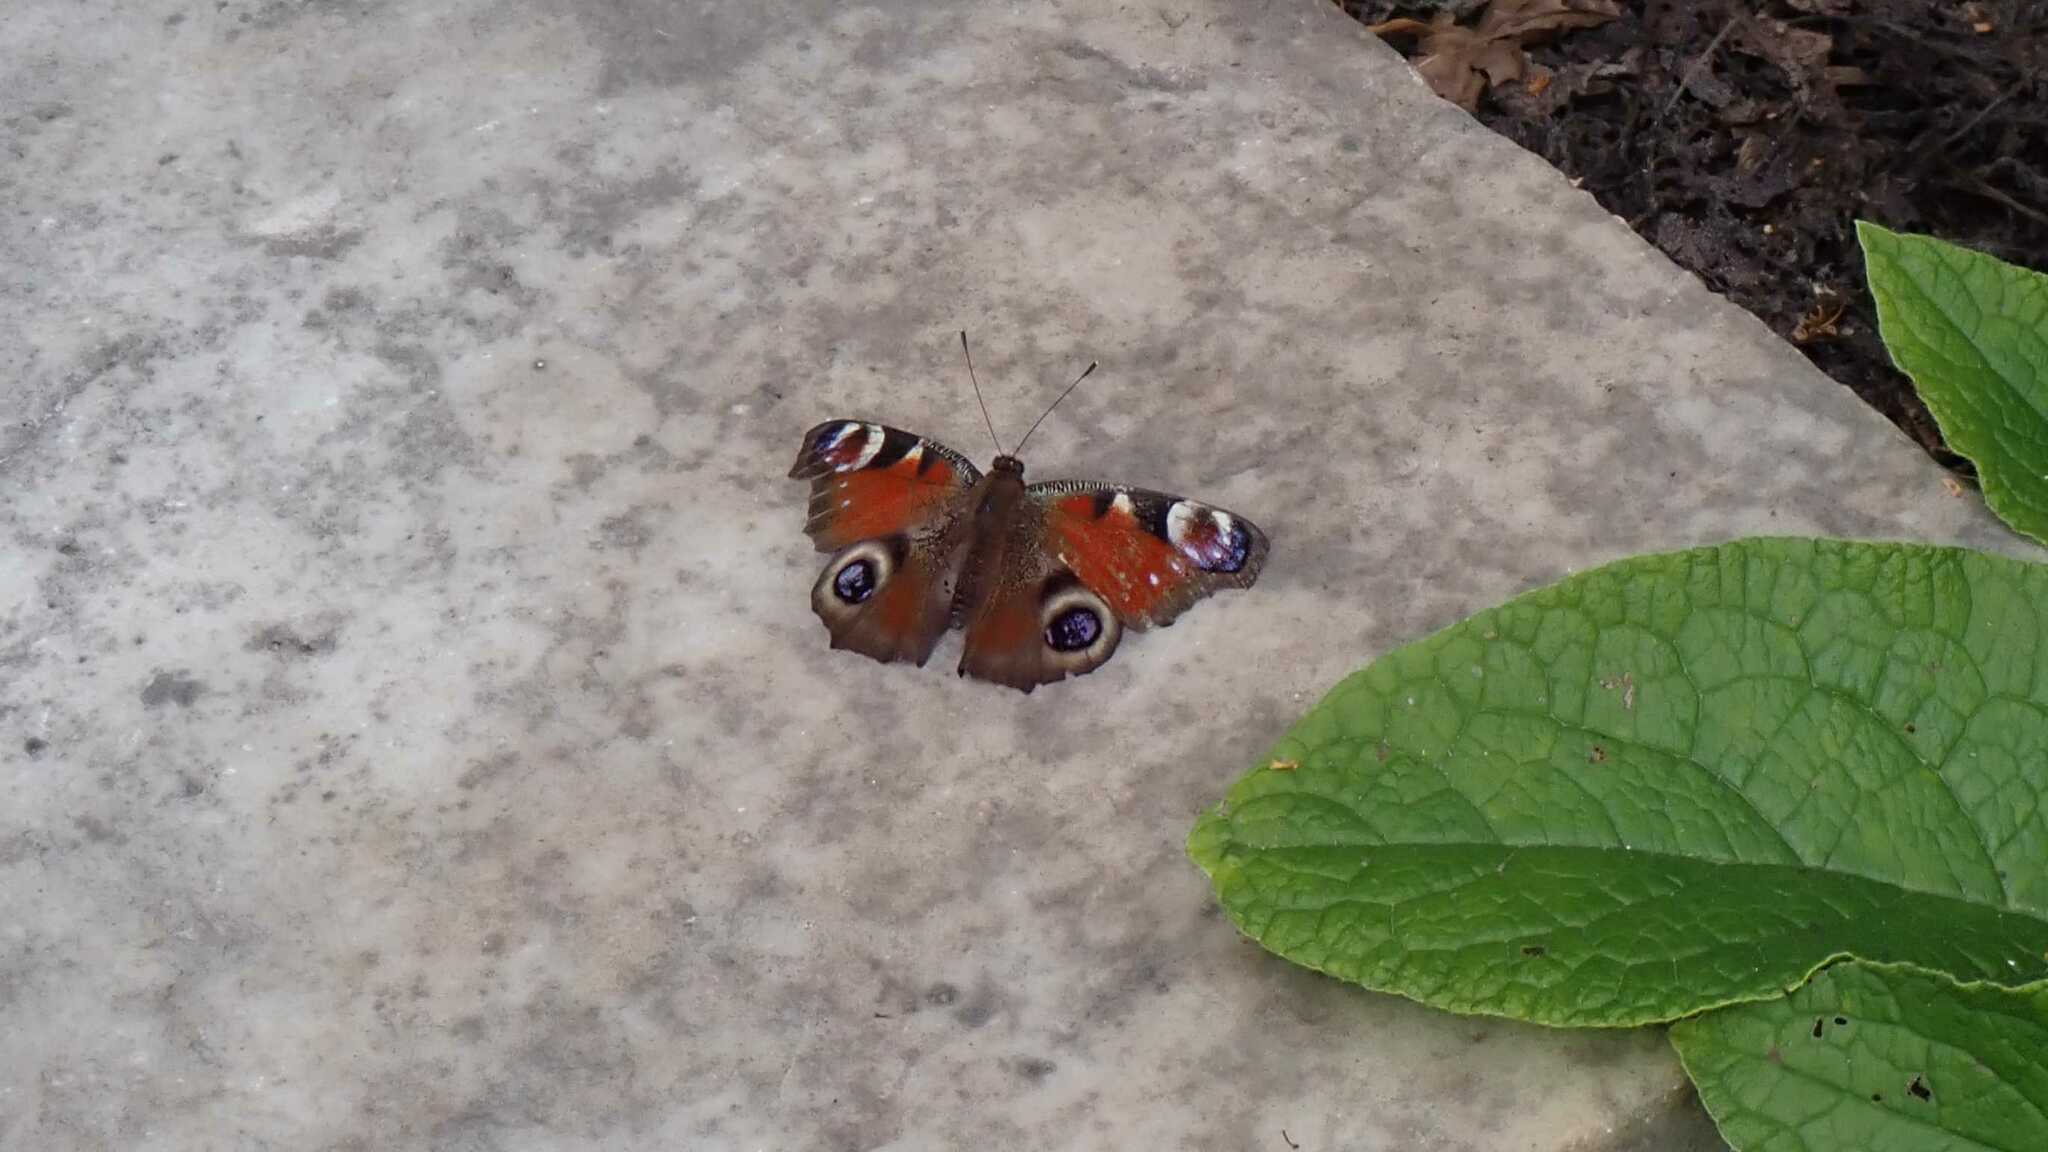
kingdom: Animalia
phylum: Arthropoda
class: Insecta
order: Lepidoptera
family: Nymphalidae
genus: Aglais
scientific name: Aglais io
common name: Peacock
